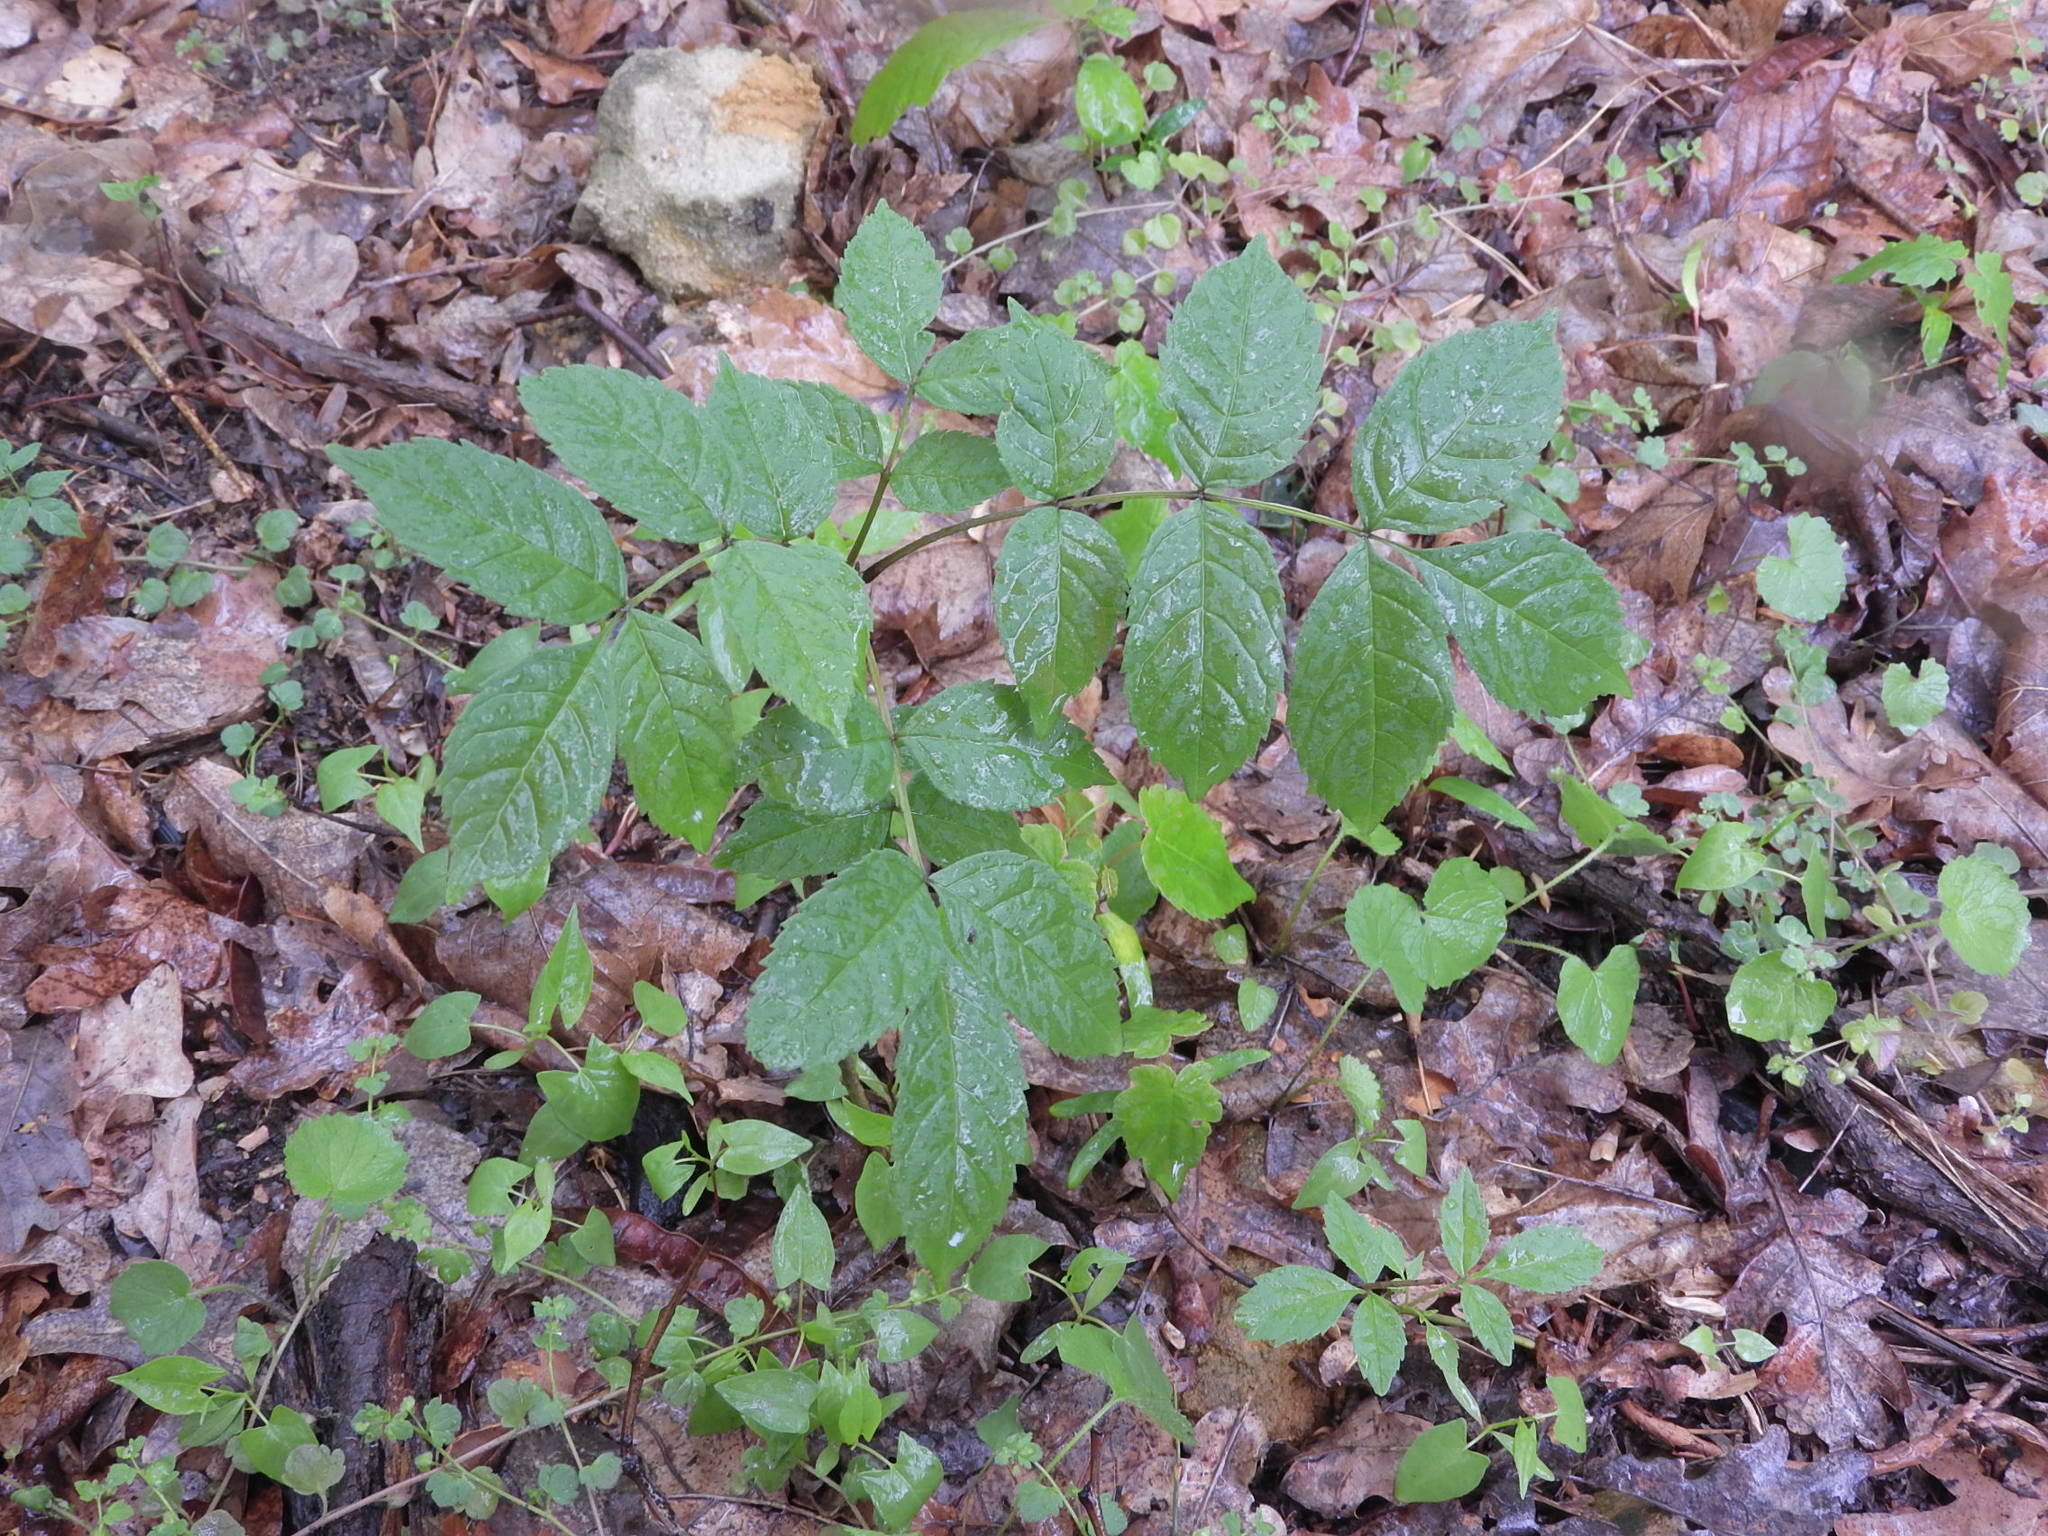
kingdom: Plantae
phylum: Tracheophyta
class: Magnoliopsida
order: Lamiales
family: Oleaceae
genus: Fraxinus
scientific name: Fraxinus excelsior
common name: European ash
